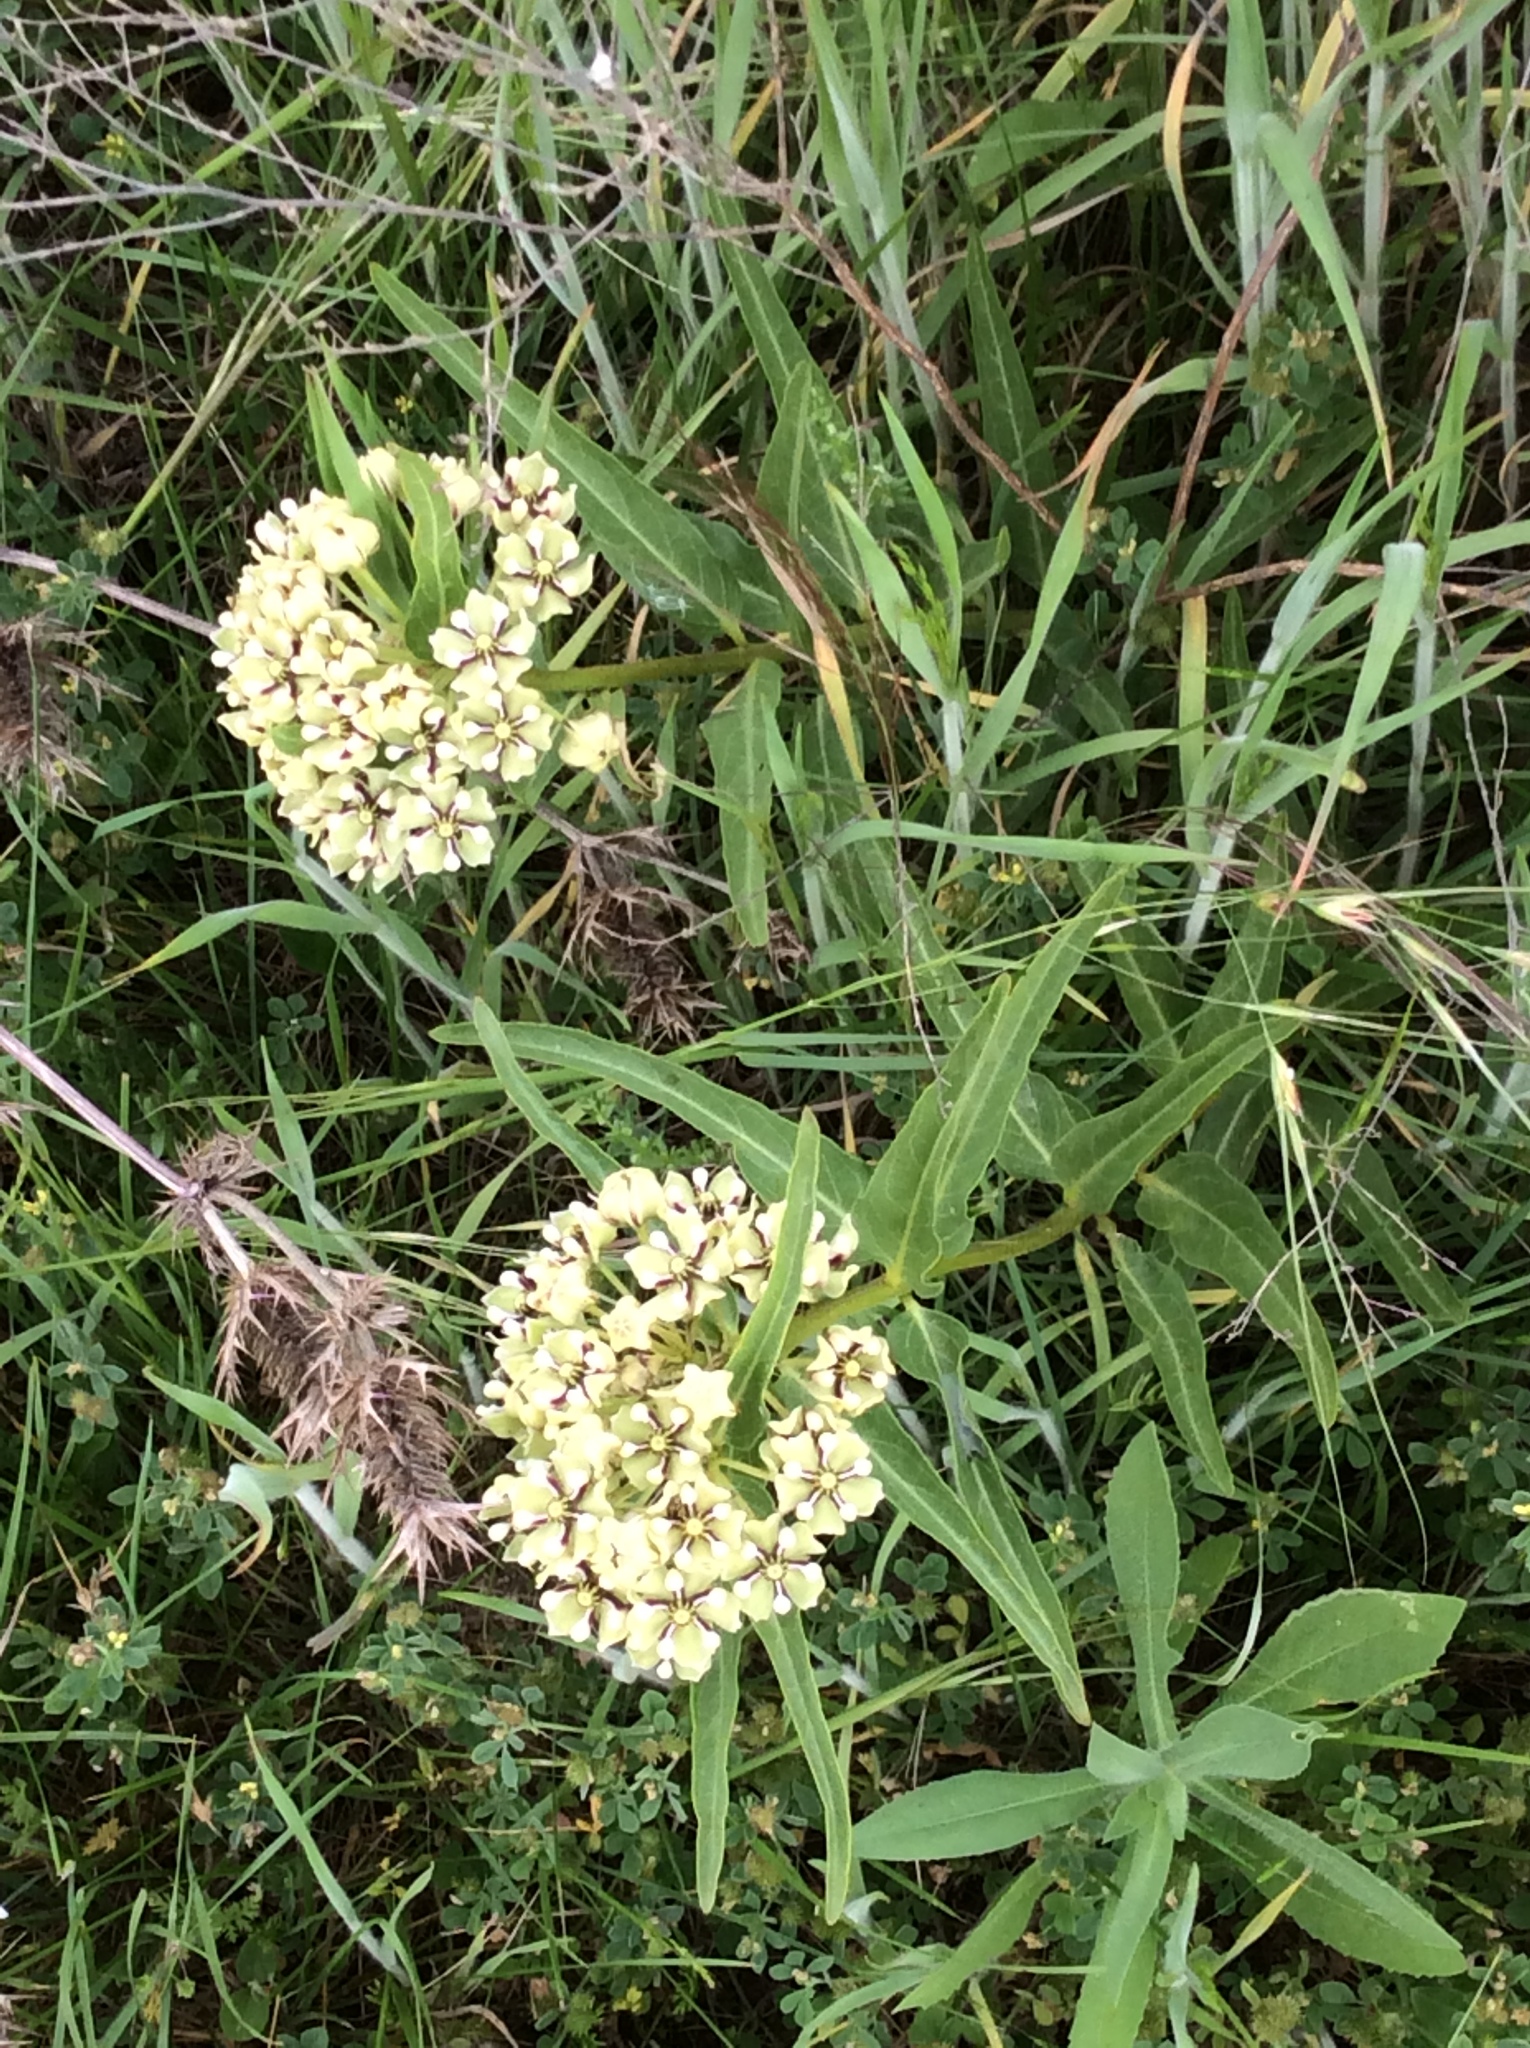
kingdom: Plantae
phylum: Tracheophyta
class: Magnoliopsida
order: Gentianales
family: Apocynaceae
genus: Asclepias
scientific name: Asclepias asperula
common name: Antelope horns
